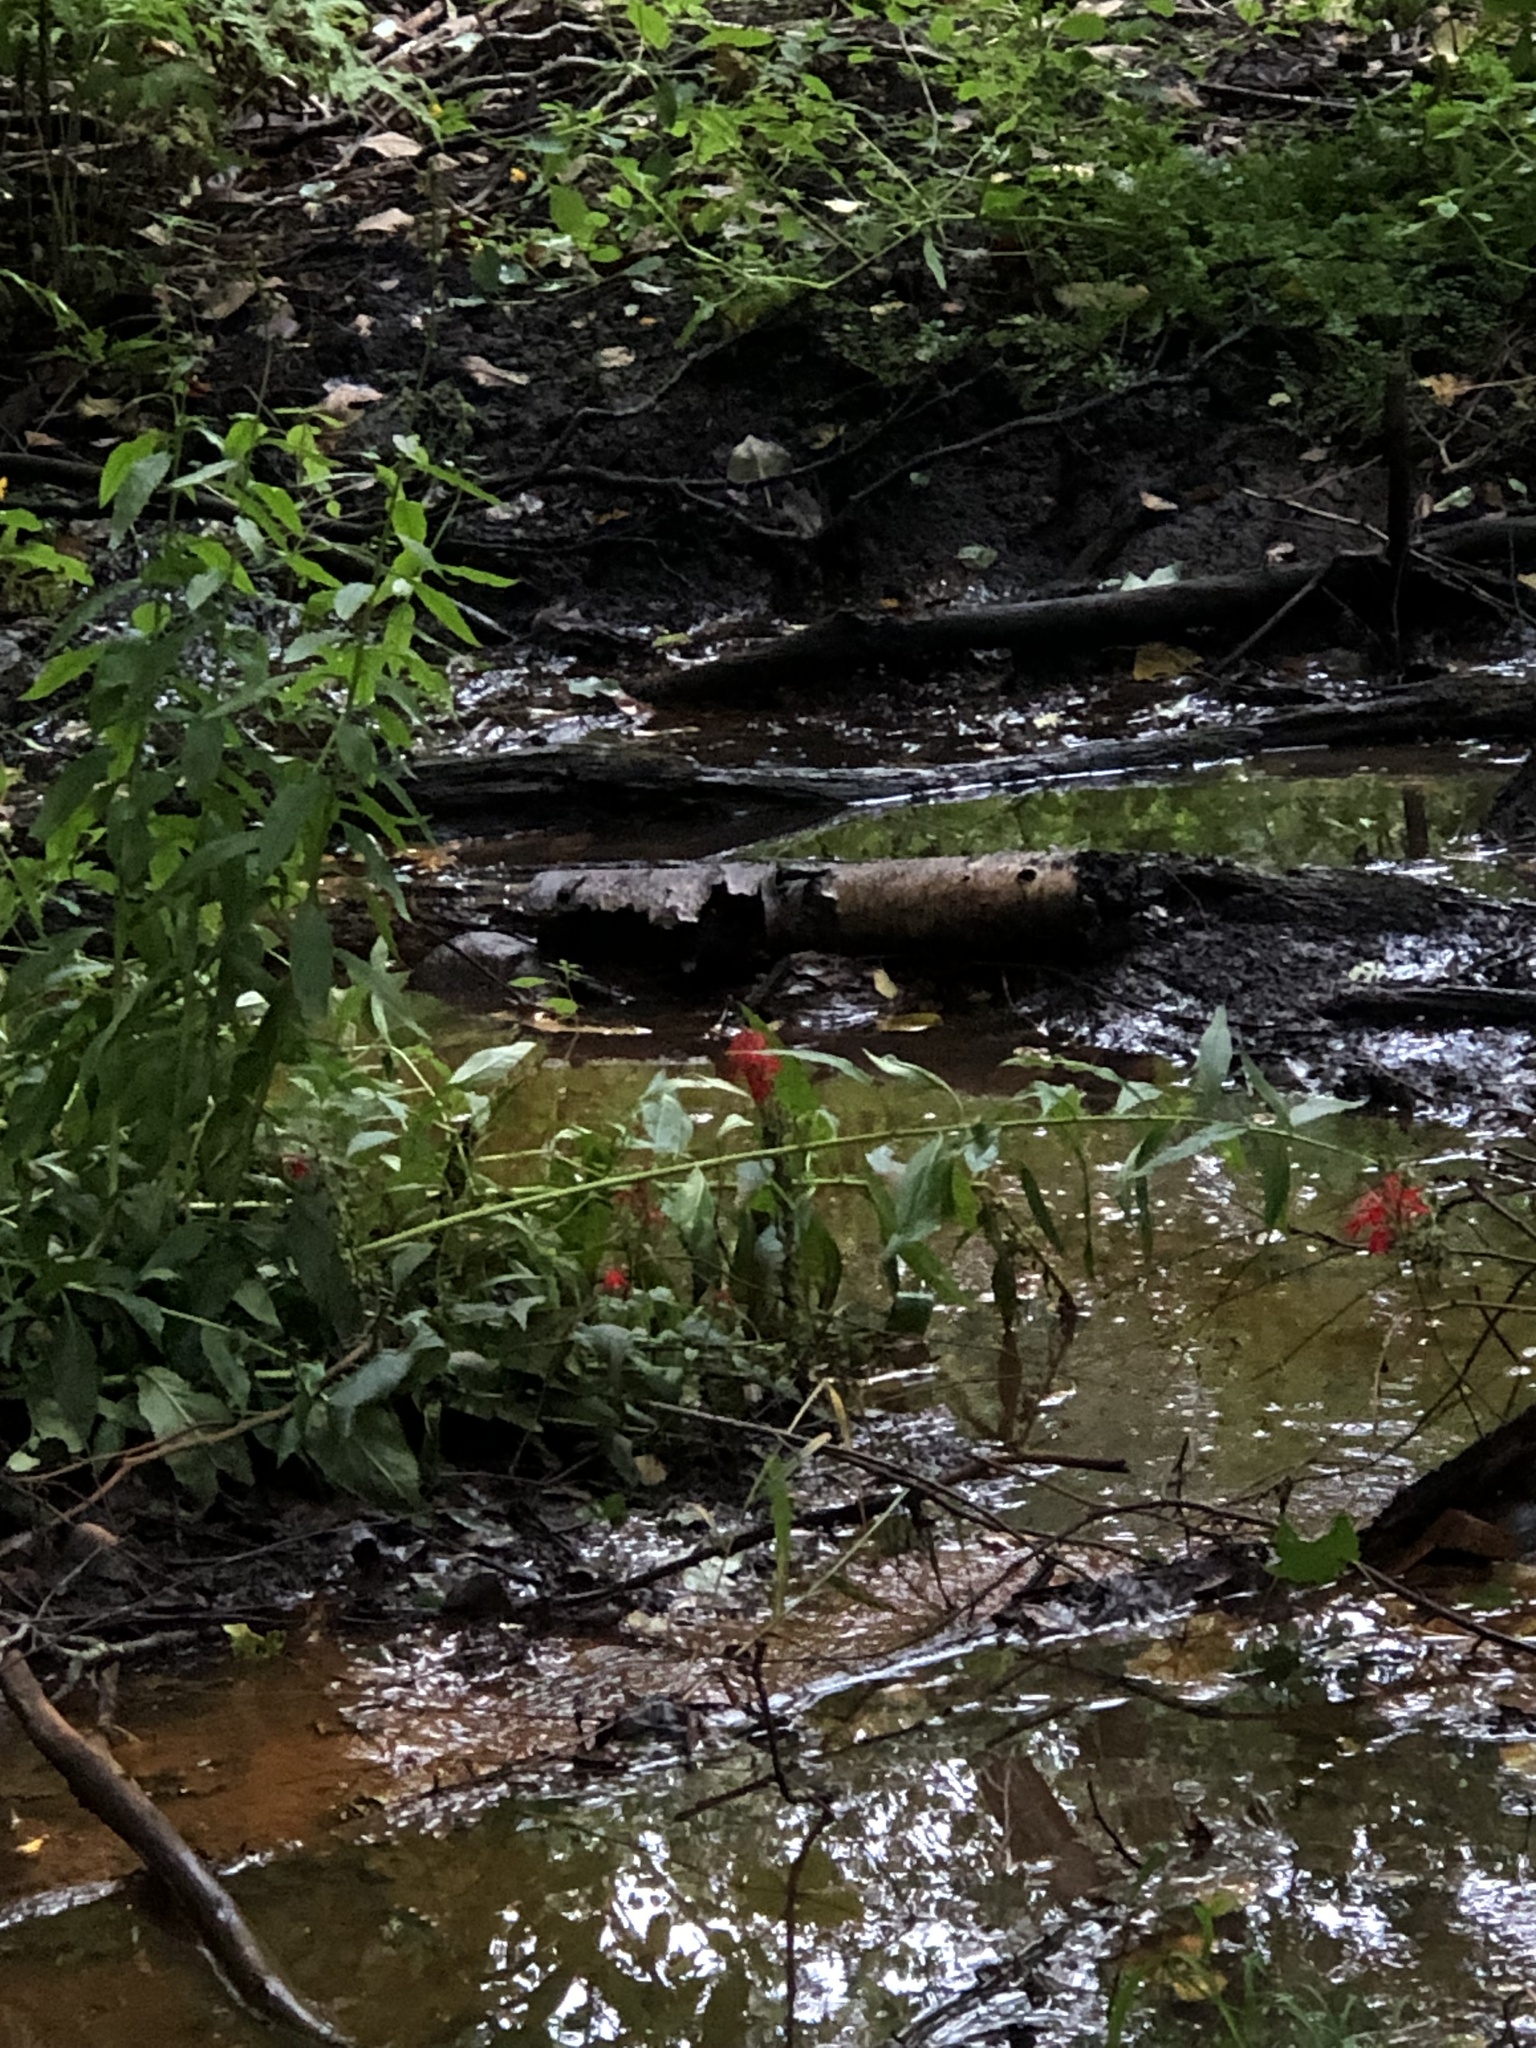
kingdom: Plantae
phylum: Tracheophyta
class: Magnoliopsida
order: Asterales
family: Campanulaceae
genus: Lobelia
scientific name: Lobelia cardinalis
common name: Cardinal flower
